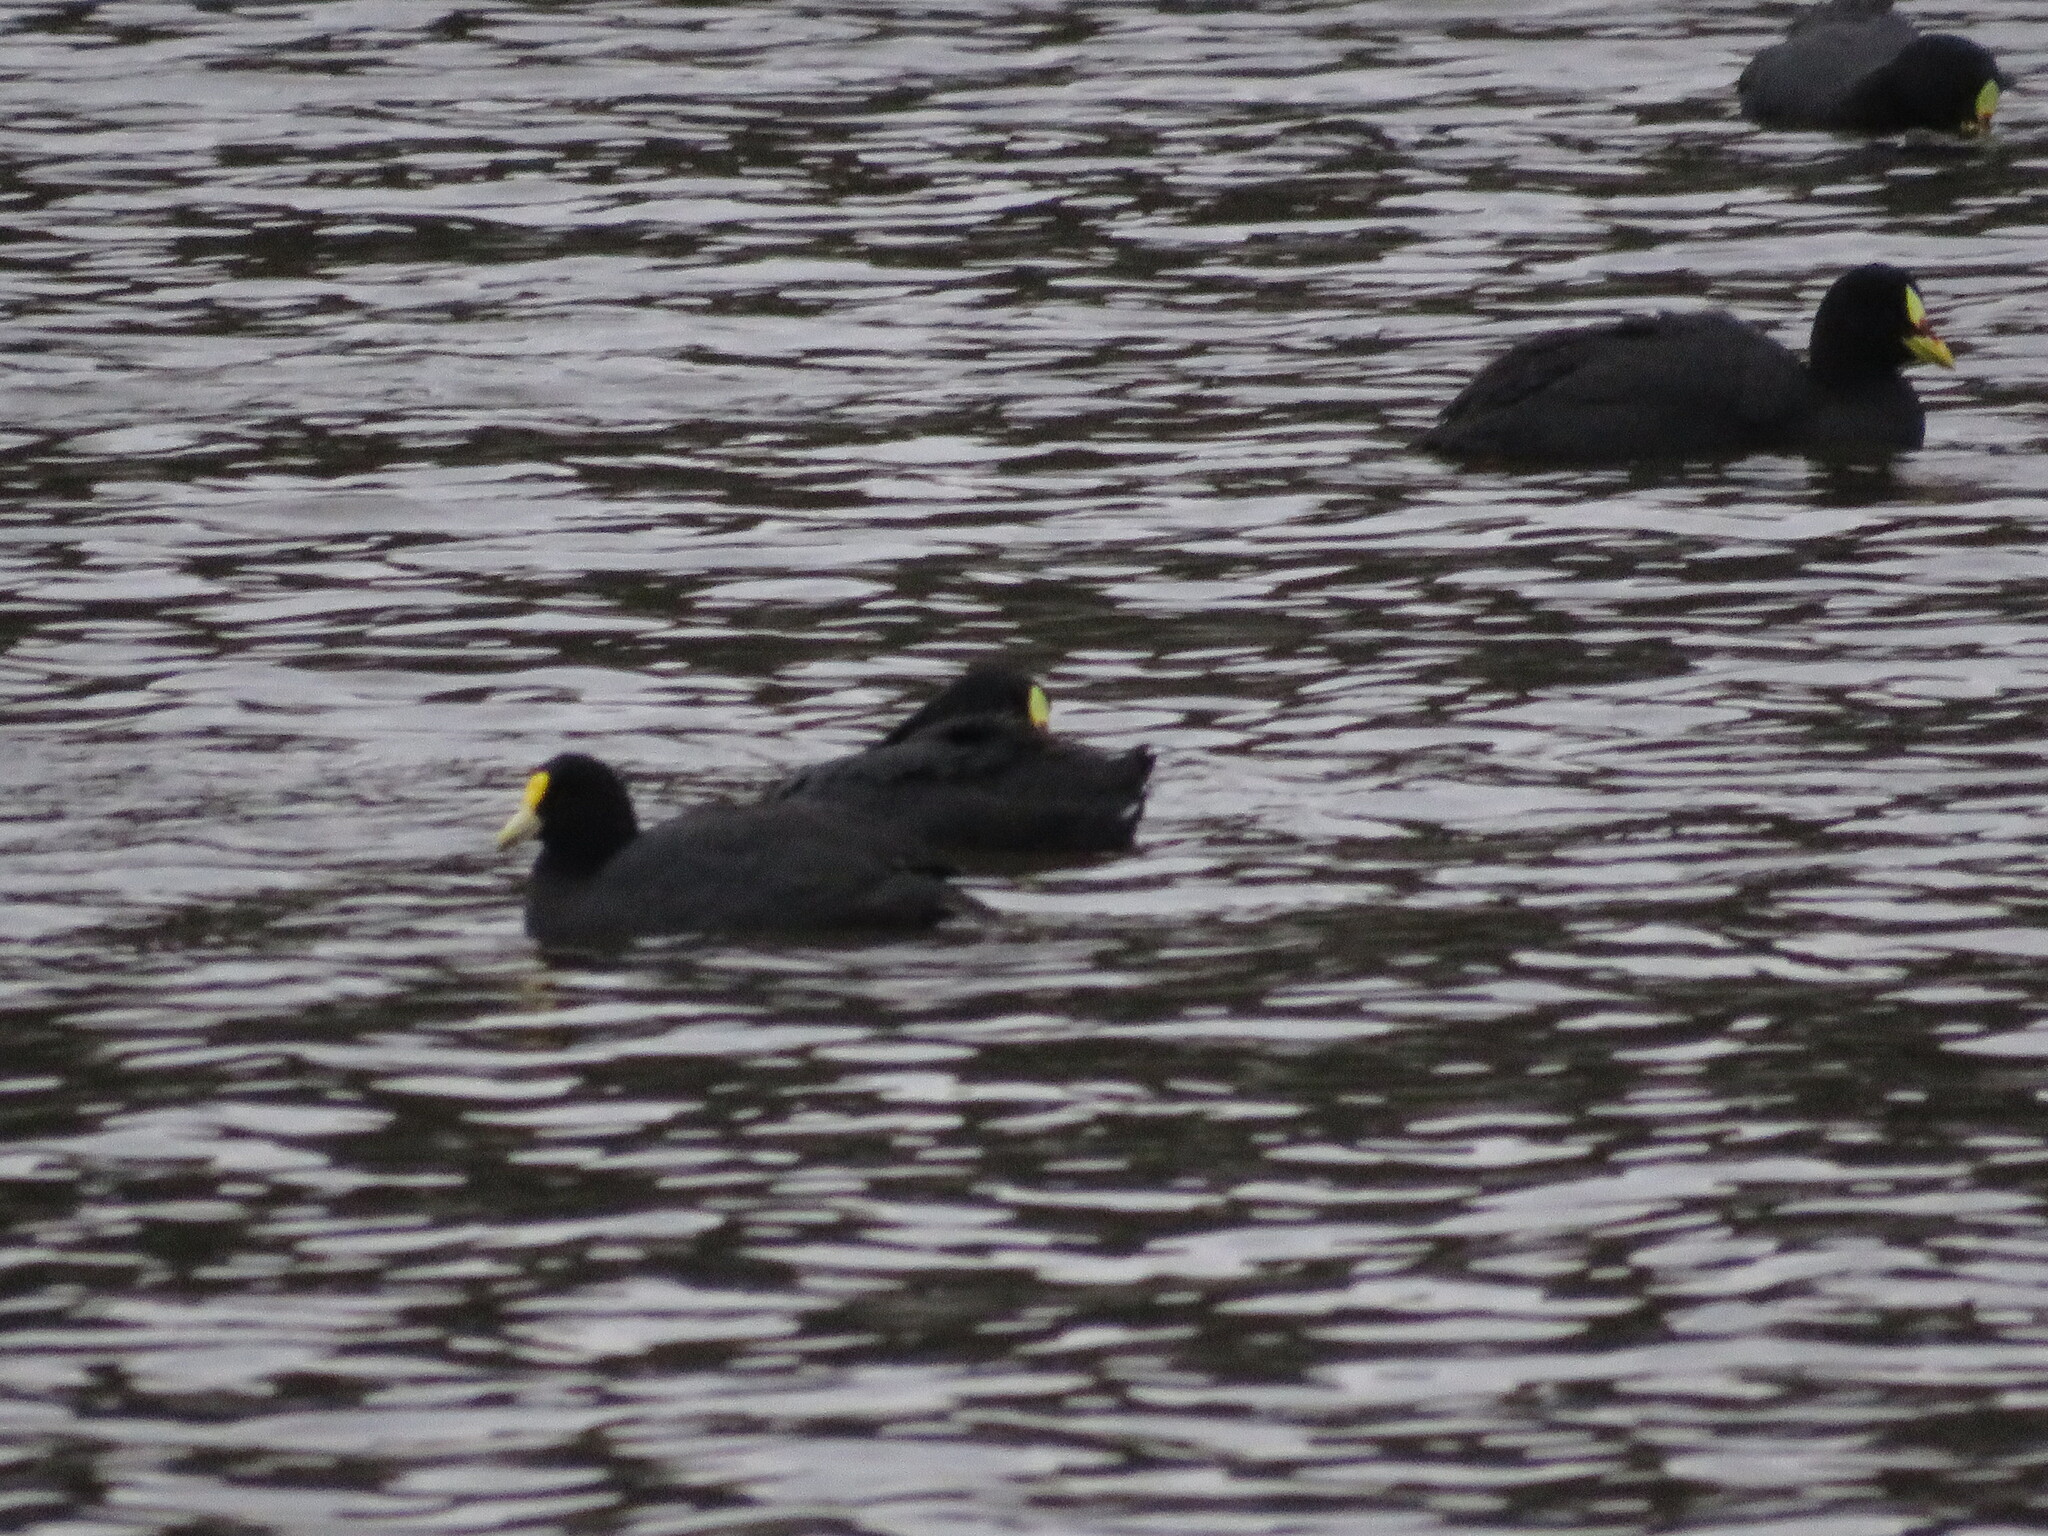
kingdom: Animalia
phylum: Chordata
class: Aves
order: Gruiformes
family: Rallidae
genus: Fulica
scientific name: Fulica leucoptera
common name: White-winged coot
